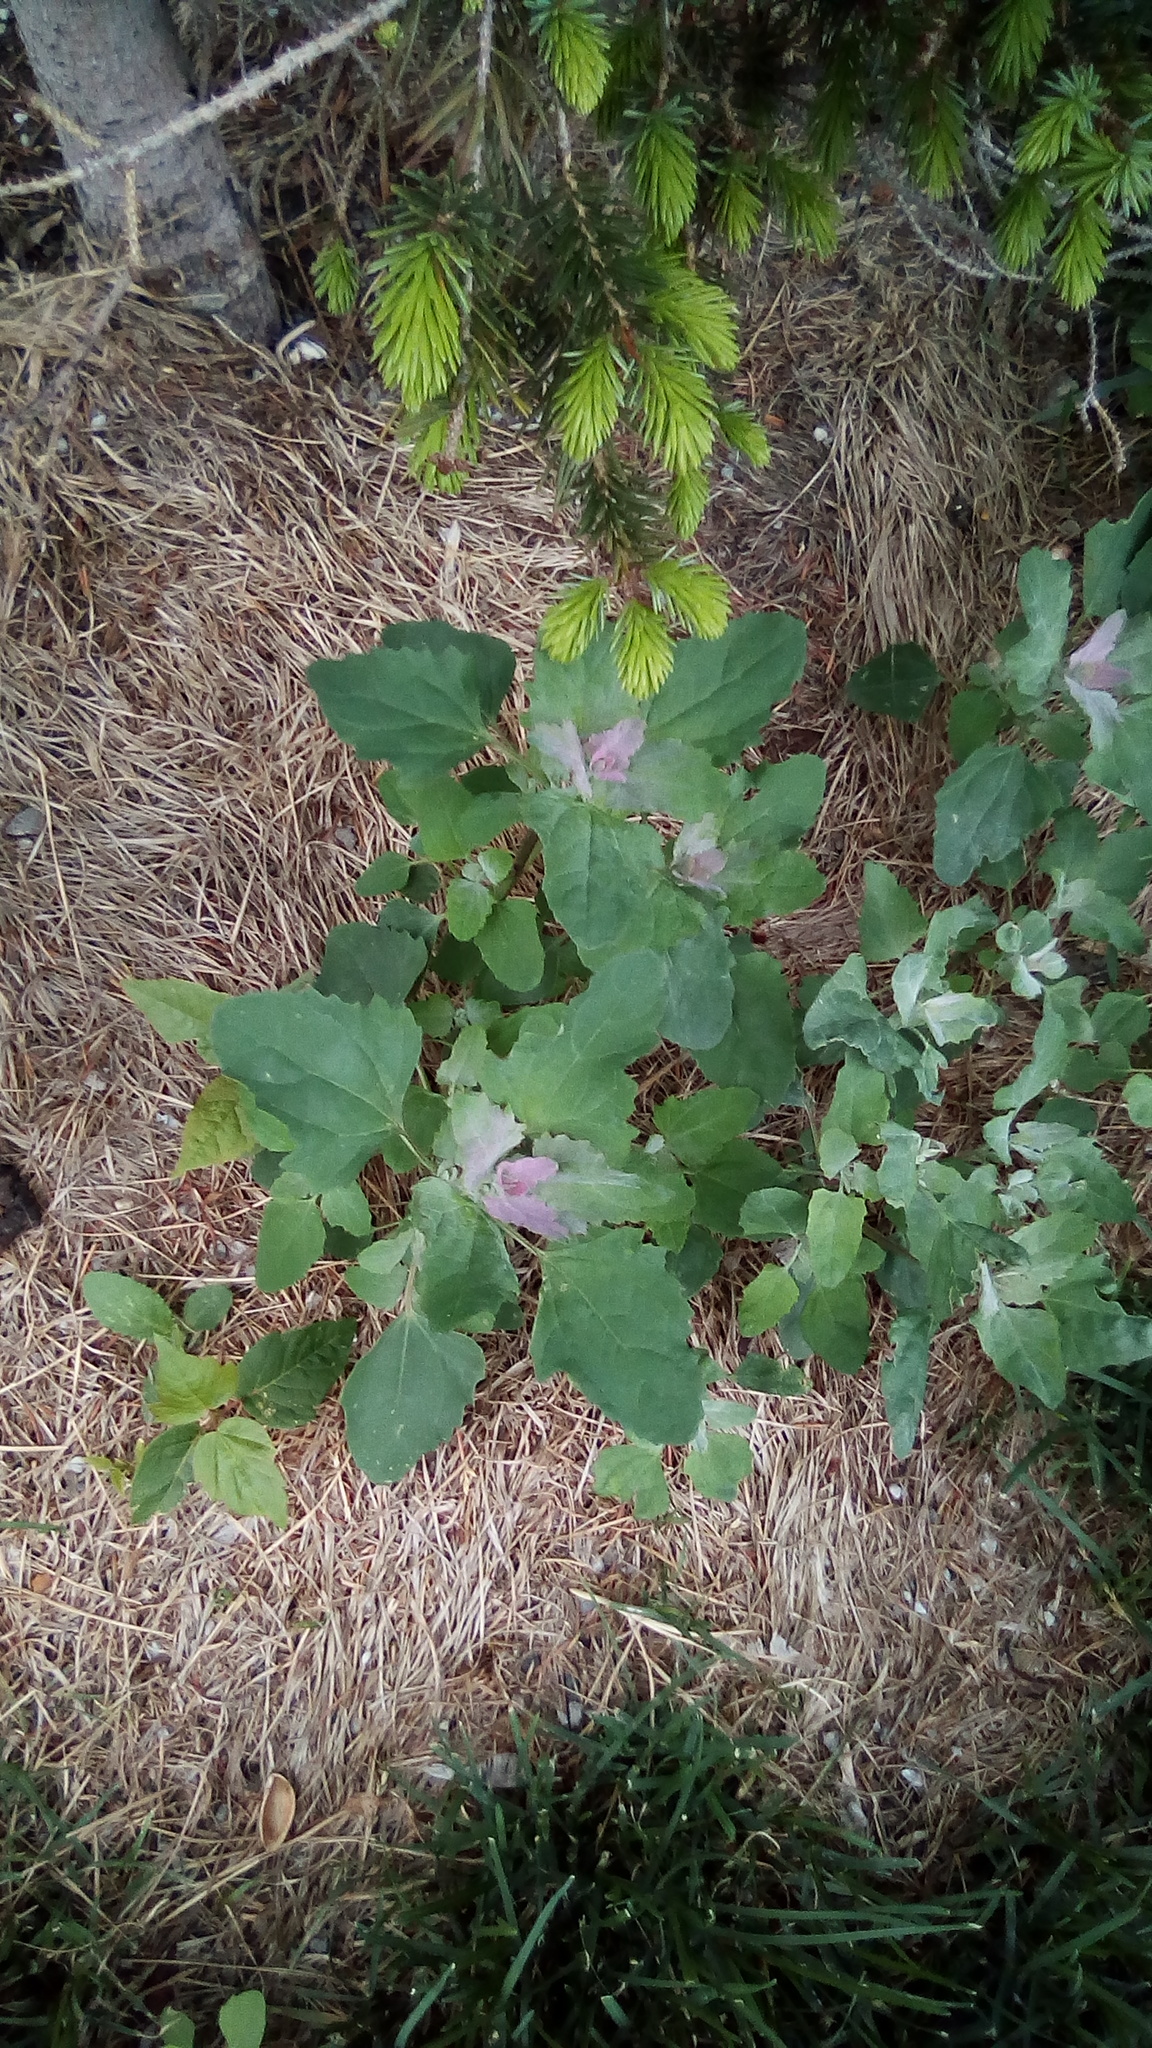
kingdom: Plantae
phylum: Tracheophyta
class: Magnoliopsida
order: Caryophyllales
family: Amaranthaceae
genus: Chenopodium
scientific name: Chenopodium album
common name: Fat-hen
